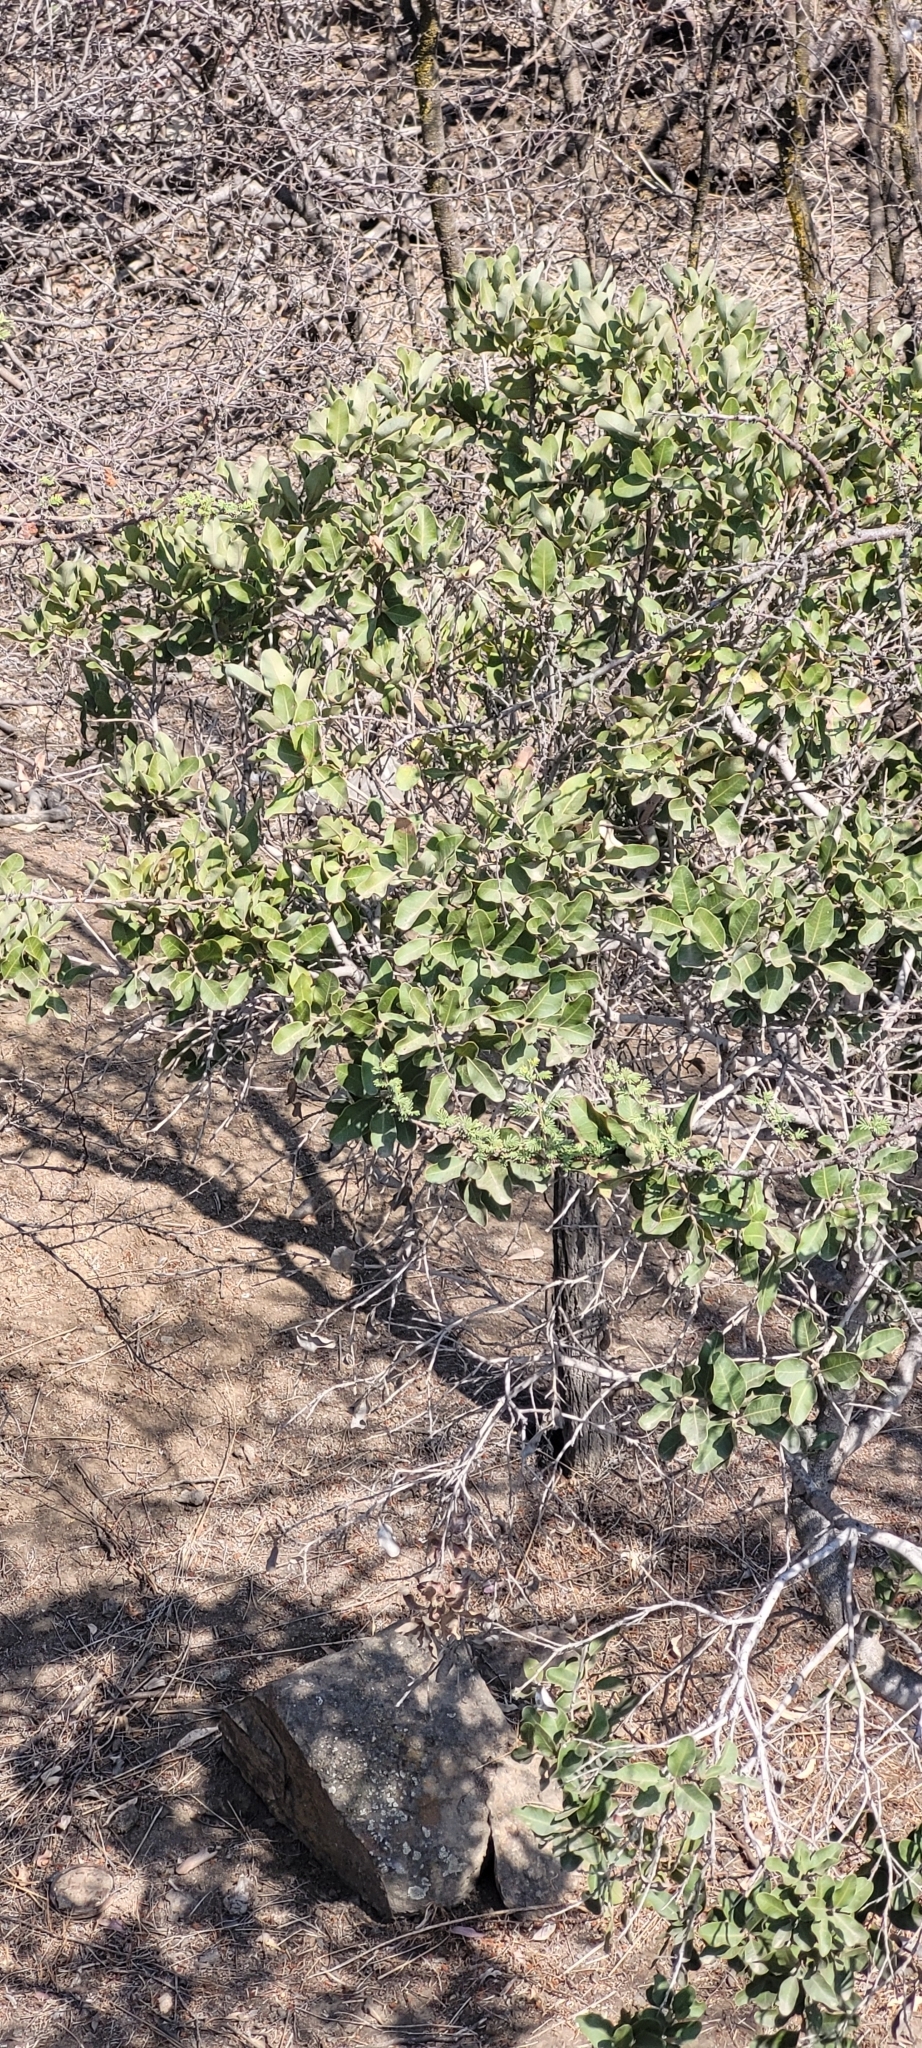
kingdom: Plantae
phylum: Tracheophyta
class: Magnoliopsida
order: Sapindales
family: Anacardiaceae
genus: Lithraea
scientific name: Lithraea caustica
